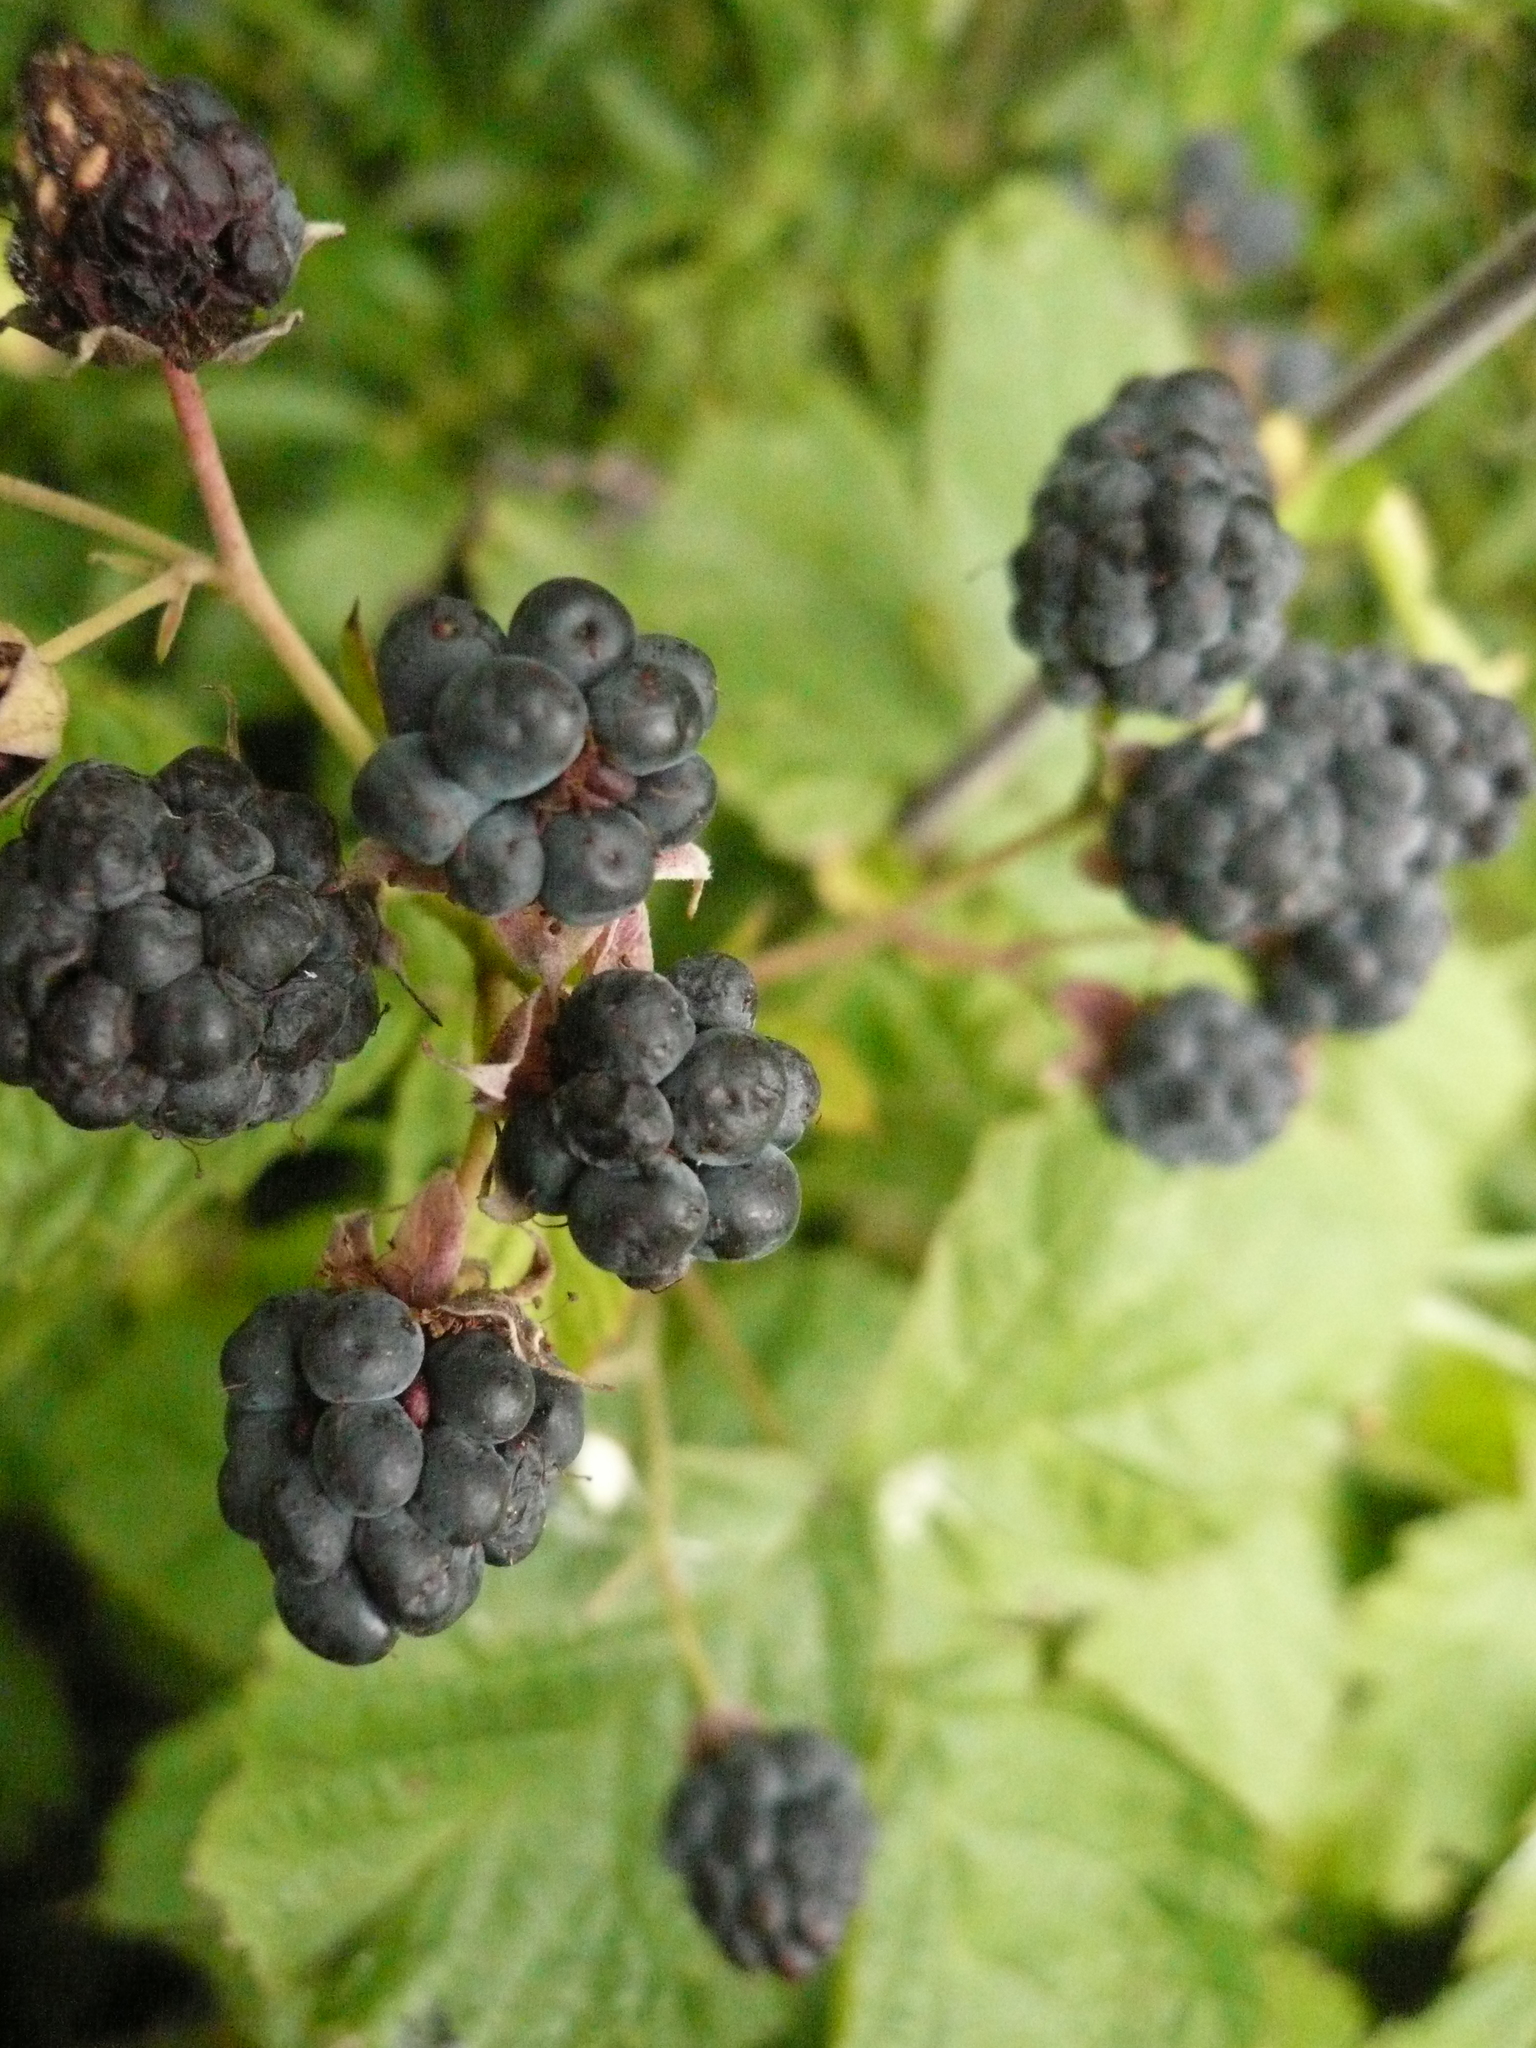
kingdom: Plantae
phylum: Tracheophyta
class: Magnoliopsida
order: Rosales
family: Rosaceae
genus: Rubus
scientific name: Rubus caesius
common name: Dewberry
